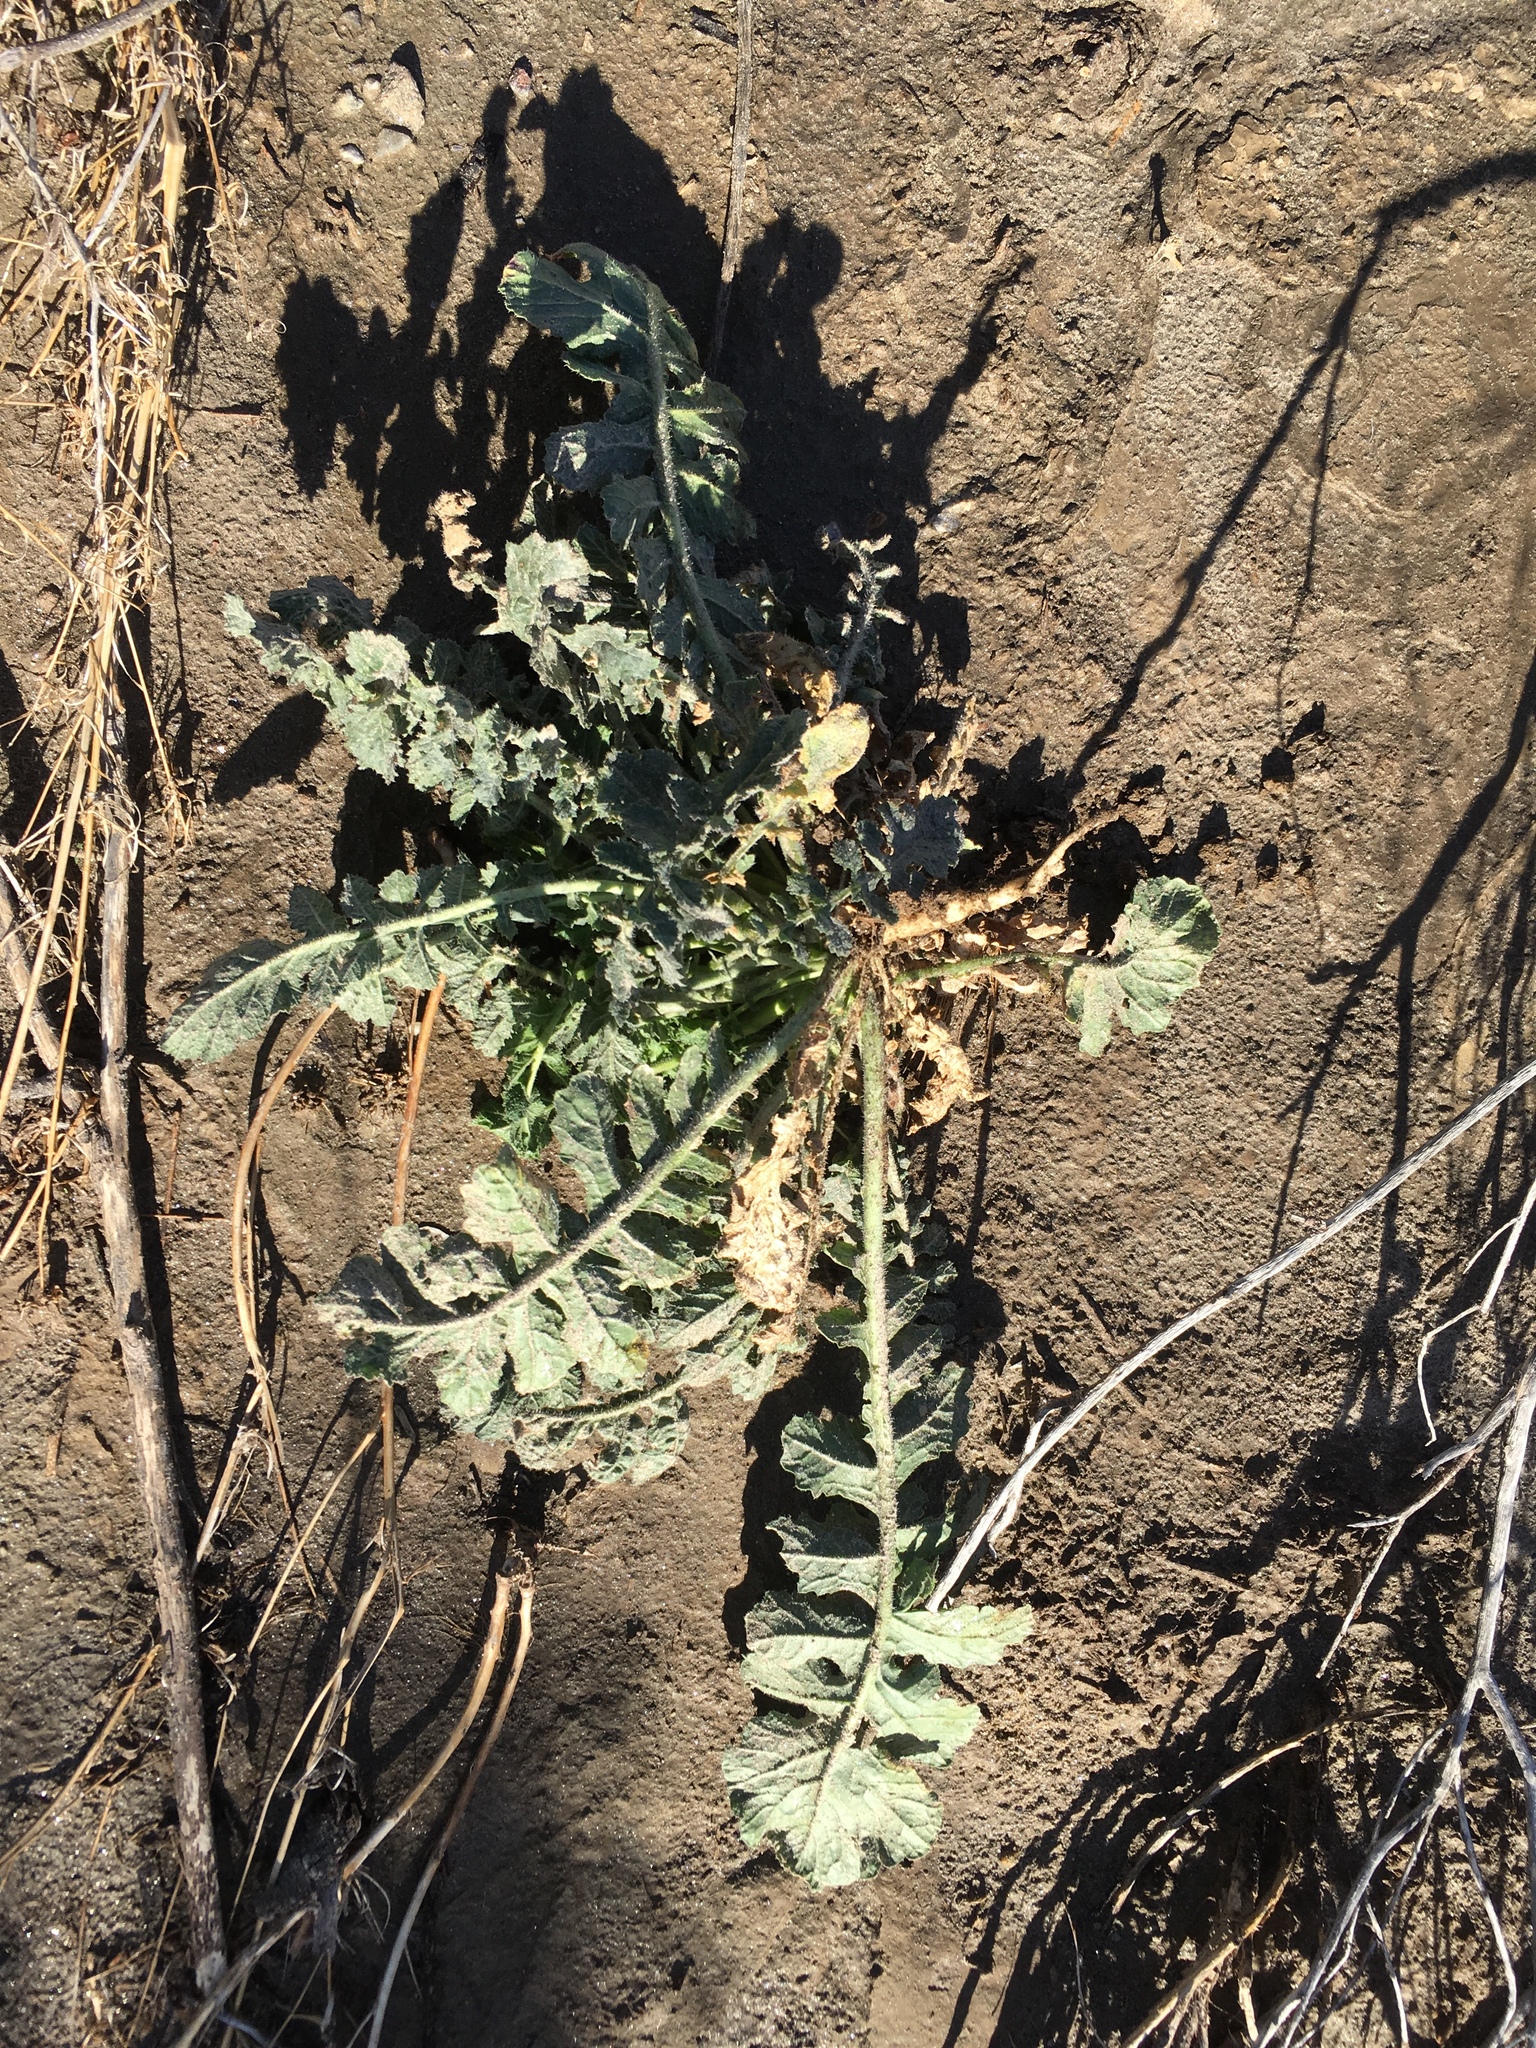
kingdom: Plantae
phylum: Tracheophyta
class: Magnoliopsida
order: Brassicales
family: Brassicaceae
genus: Brassica
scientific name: Brassica tournefortii
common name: Pale cabbage
